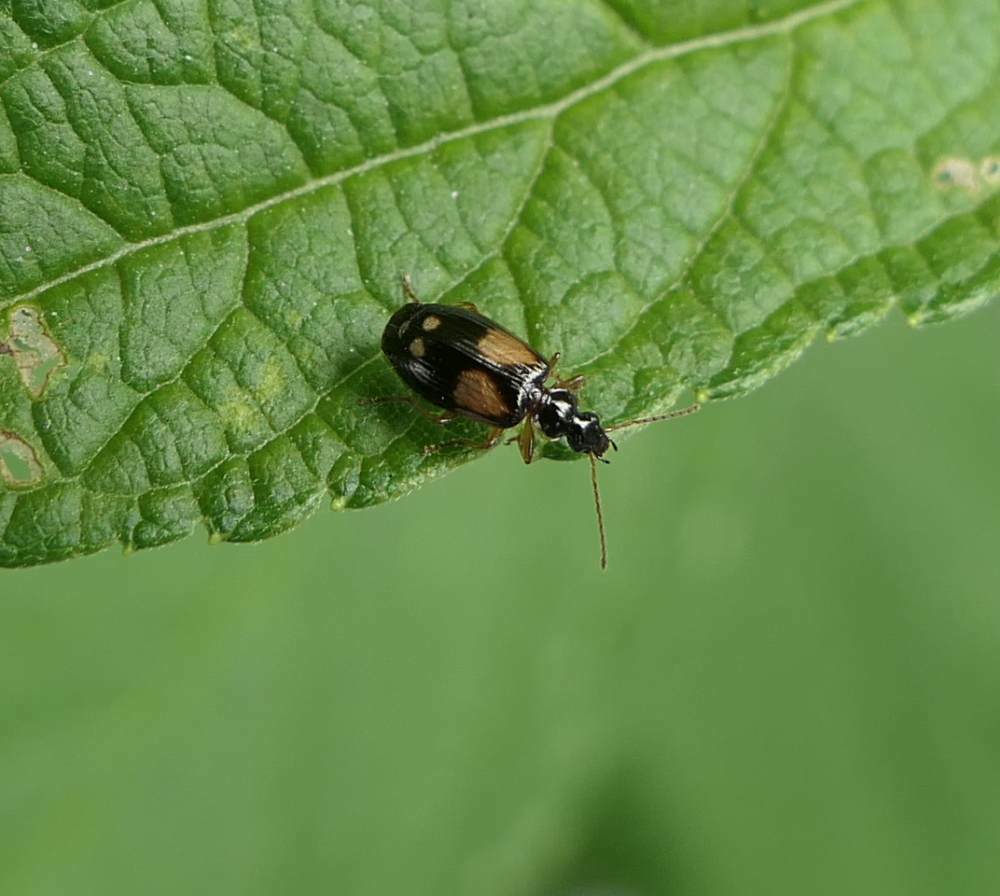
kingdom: Animalia
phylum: Arthropoda
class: Insecta
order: Coleoptera
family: Carabidae
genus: Lebia
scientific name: Lebia ornata
